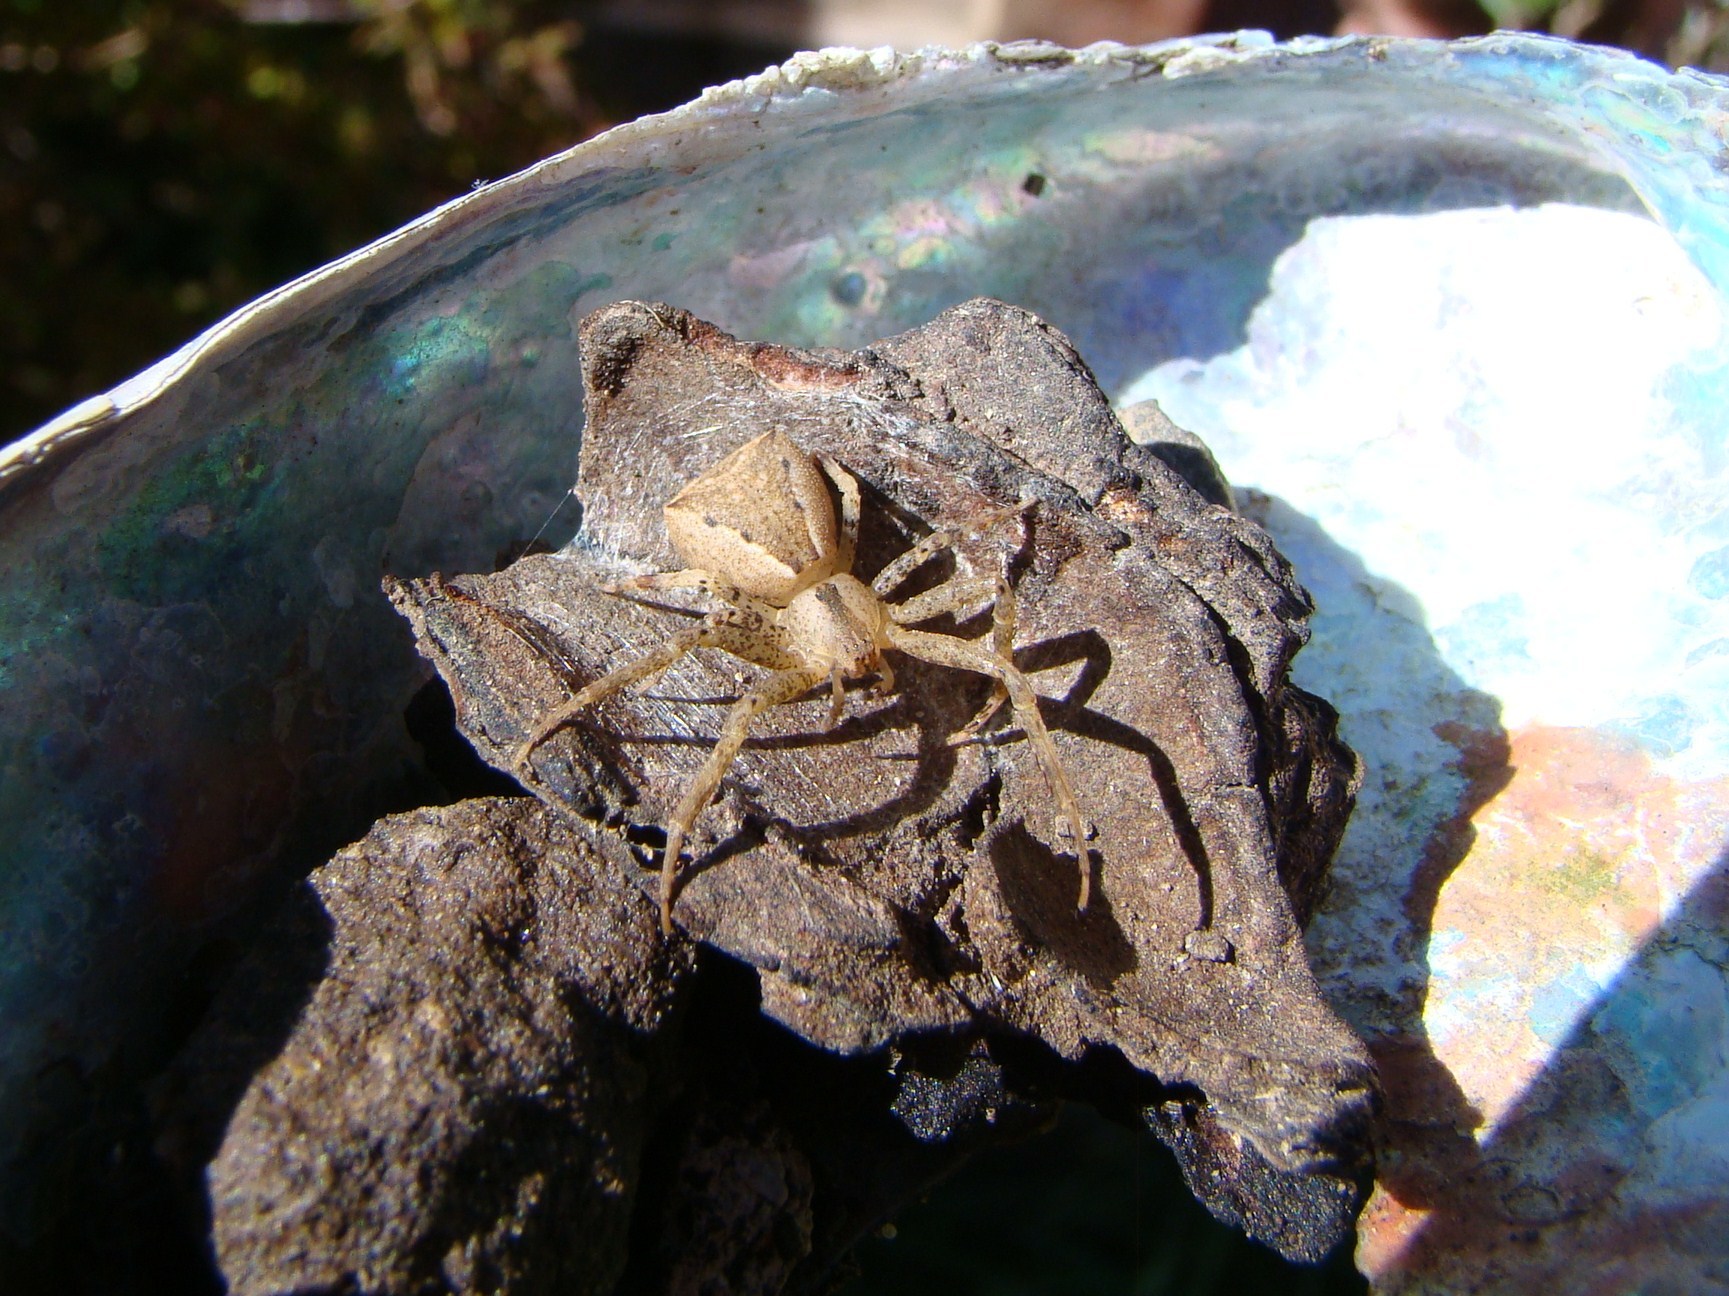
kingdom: Animalia
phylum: Arthropoda
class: Arachnida
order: Araneae
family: Thomisidae
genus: Sidymella
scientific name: Sidymella trapezia
